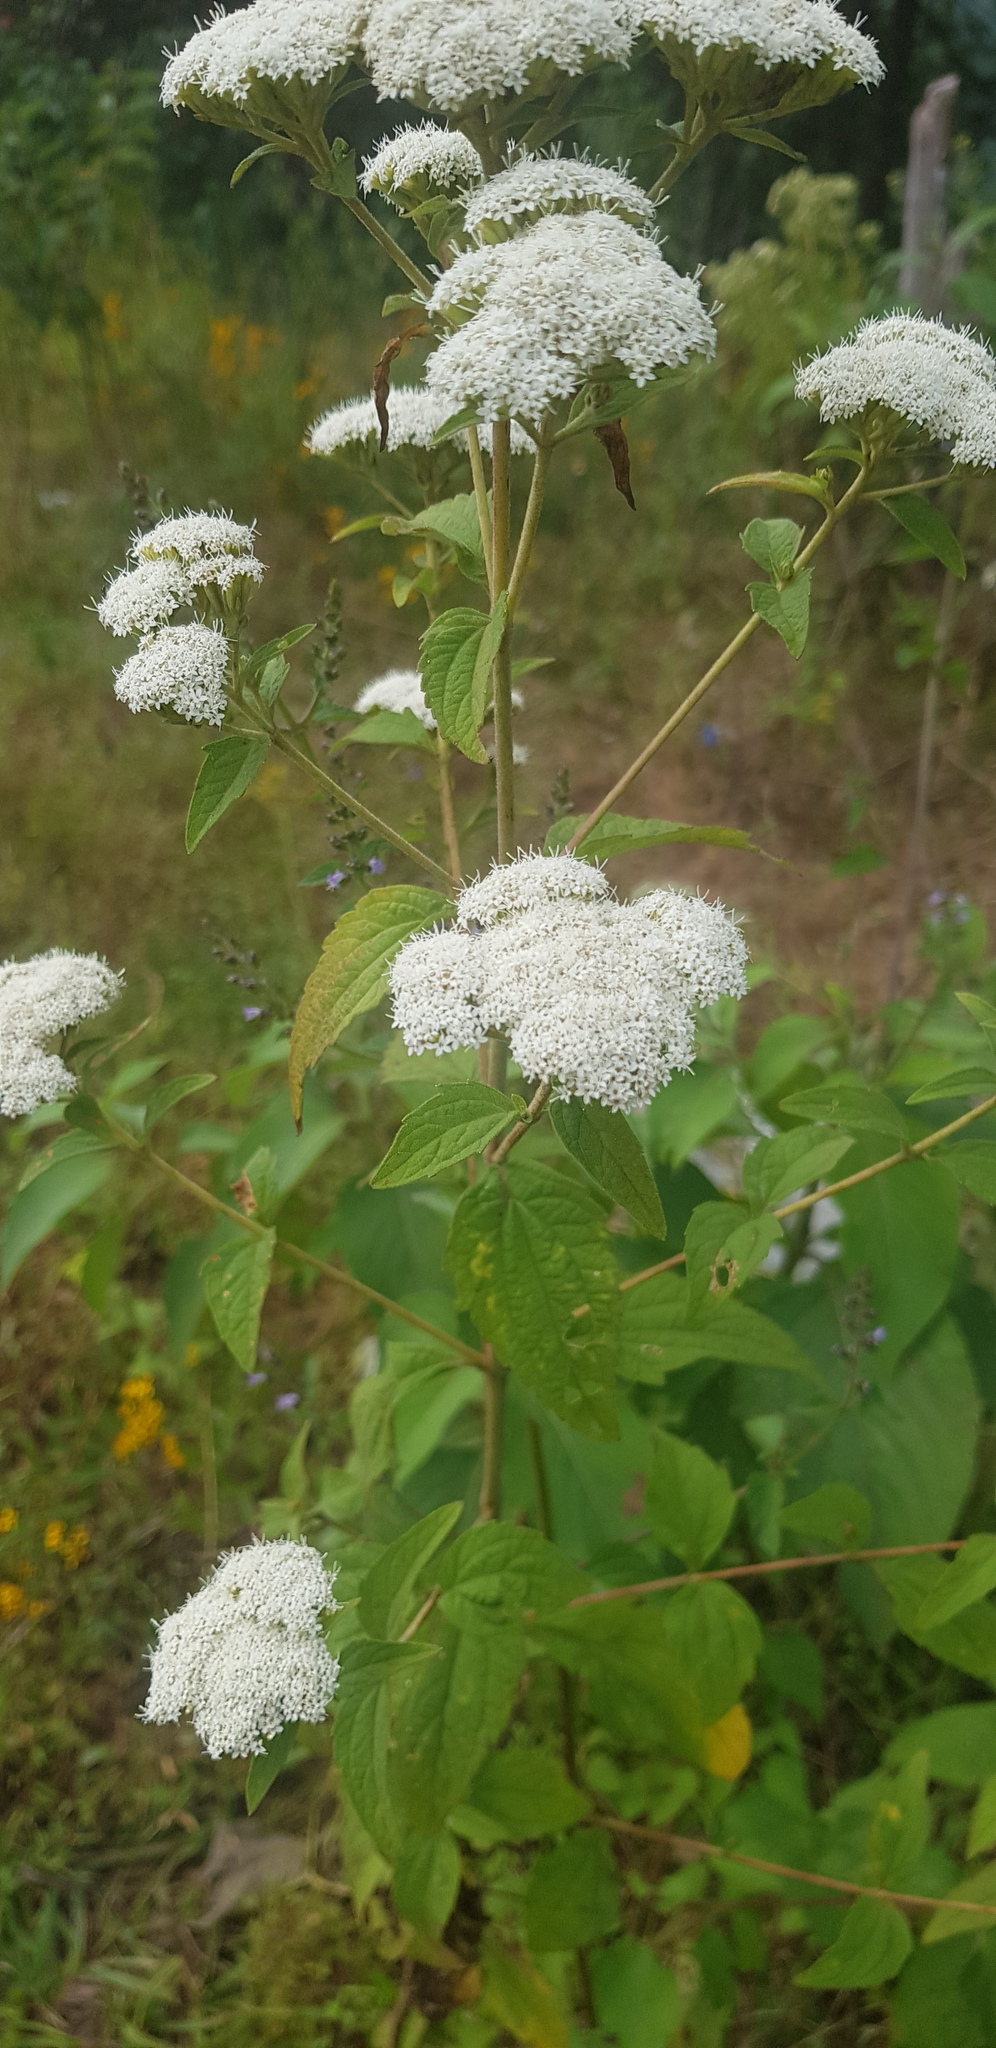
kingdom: Plantae
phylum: Tracheophyta
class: Magnoliopsida
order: Asterales
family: Asteraceae
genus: Stevia
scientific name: Stevia ovata
